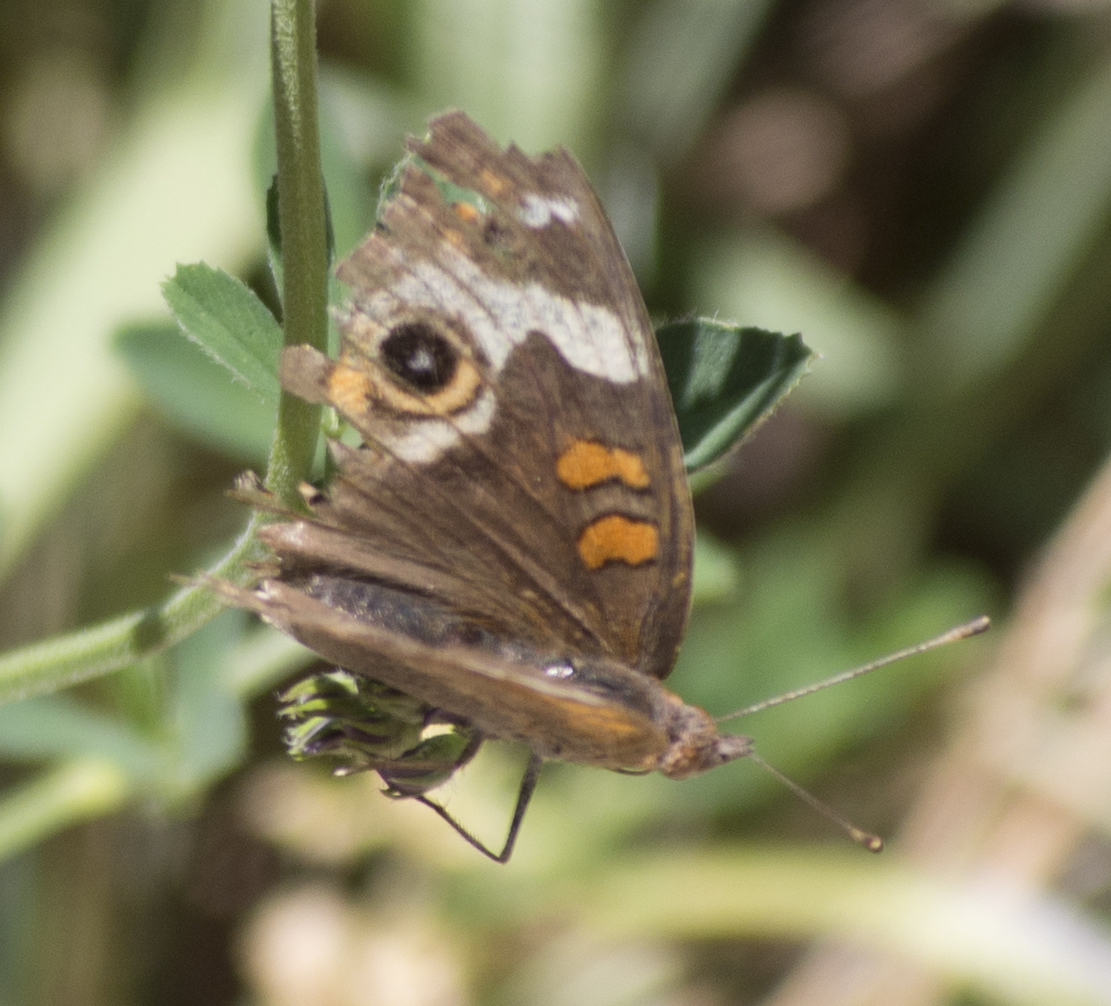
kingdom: Animalia
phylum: Arthropoda
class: Insecta
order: Lepidoptera
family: Nymphalidae
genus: Junonia
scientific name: Junonia grisea
